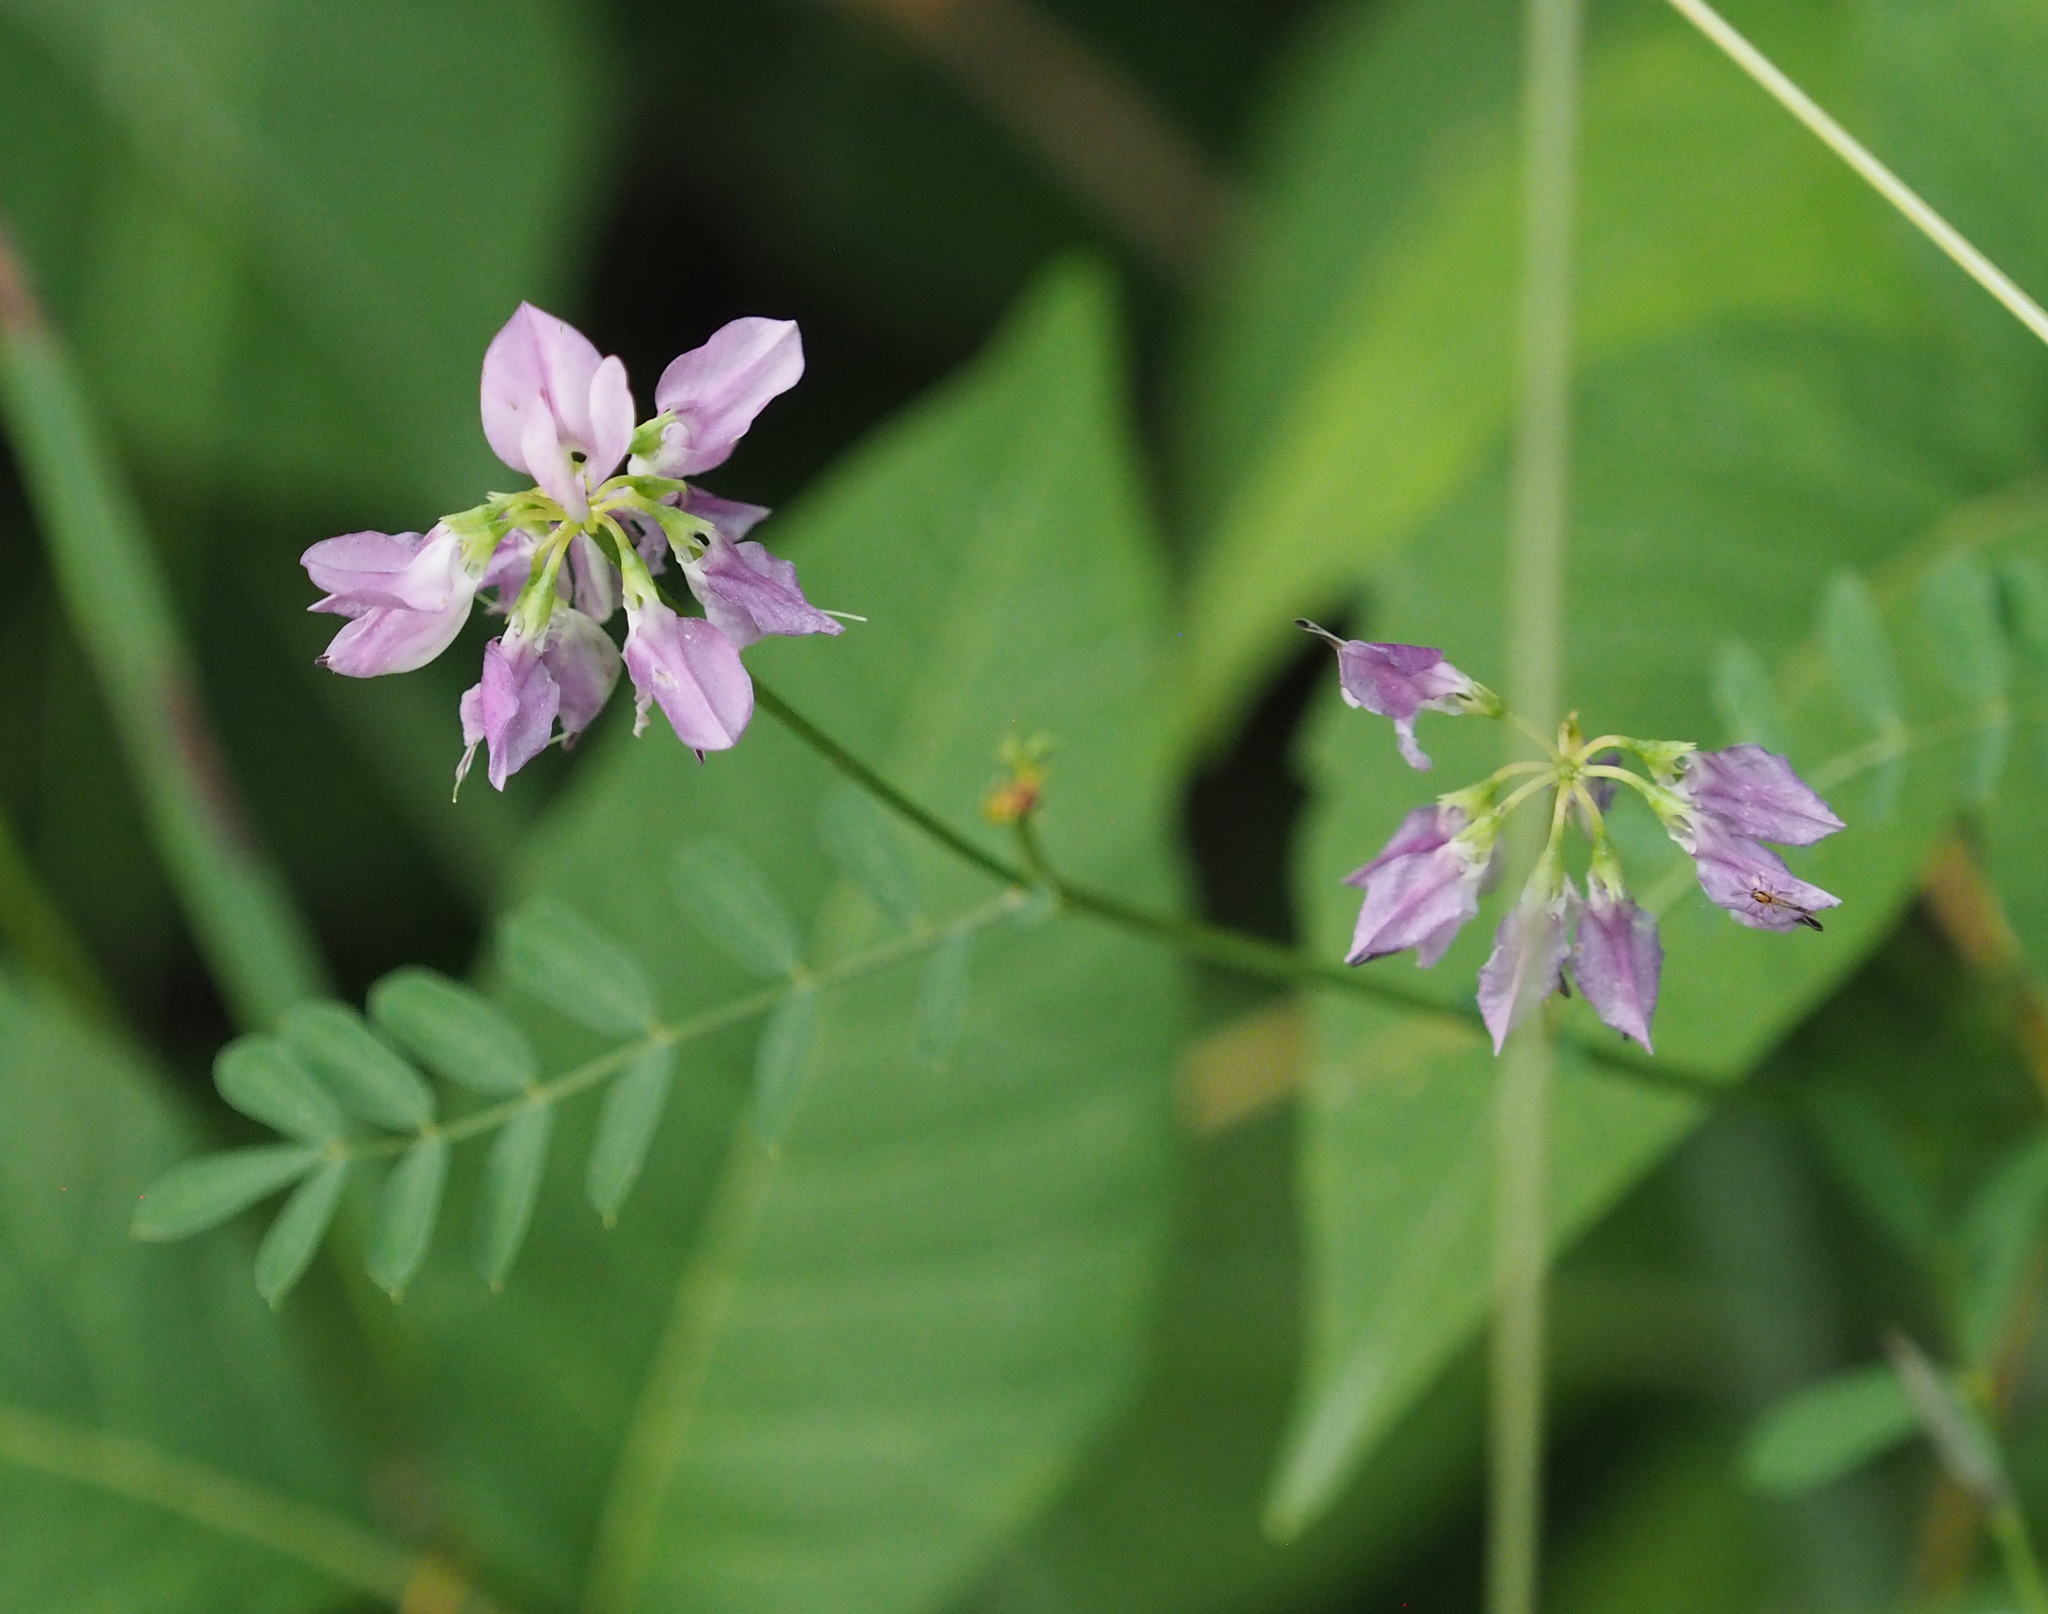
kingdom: Plantae
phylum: Tracheophyta
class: Magnoliopsida
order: Fabales
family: Fabaceae
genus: Coronilla
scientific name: Coronilla varia
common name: Crownvetch
